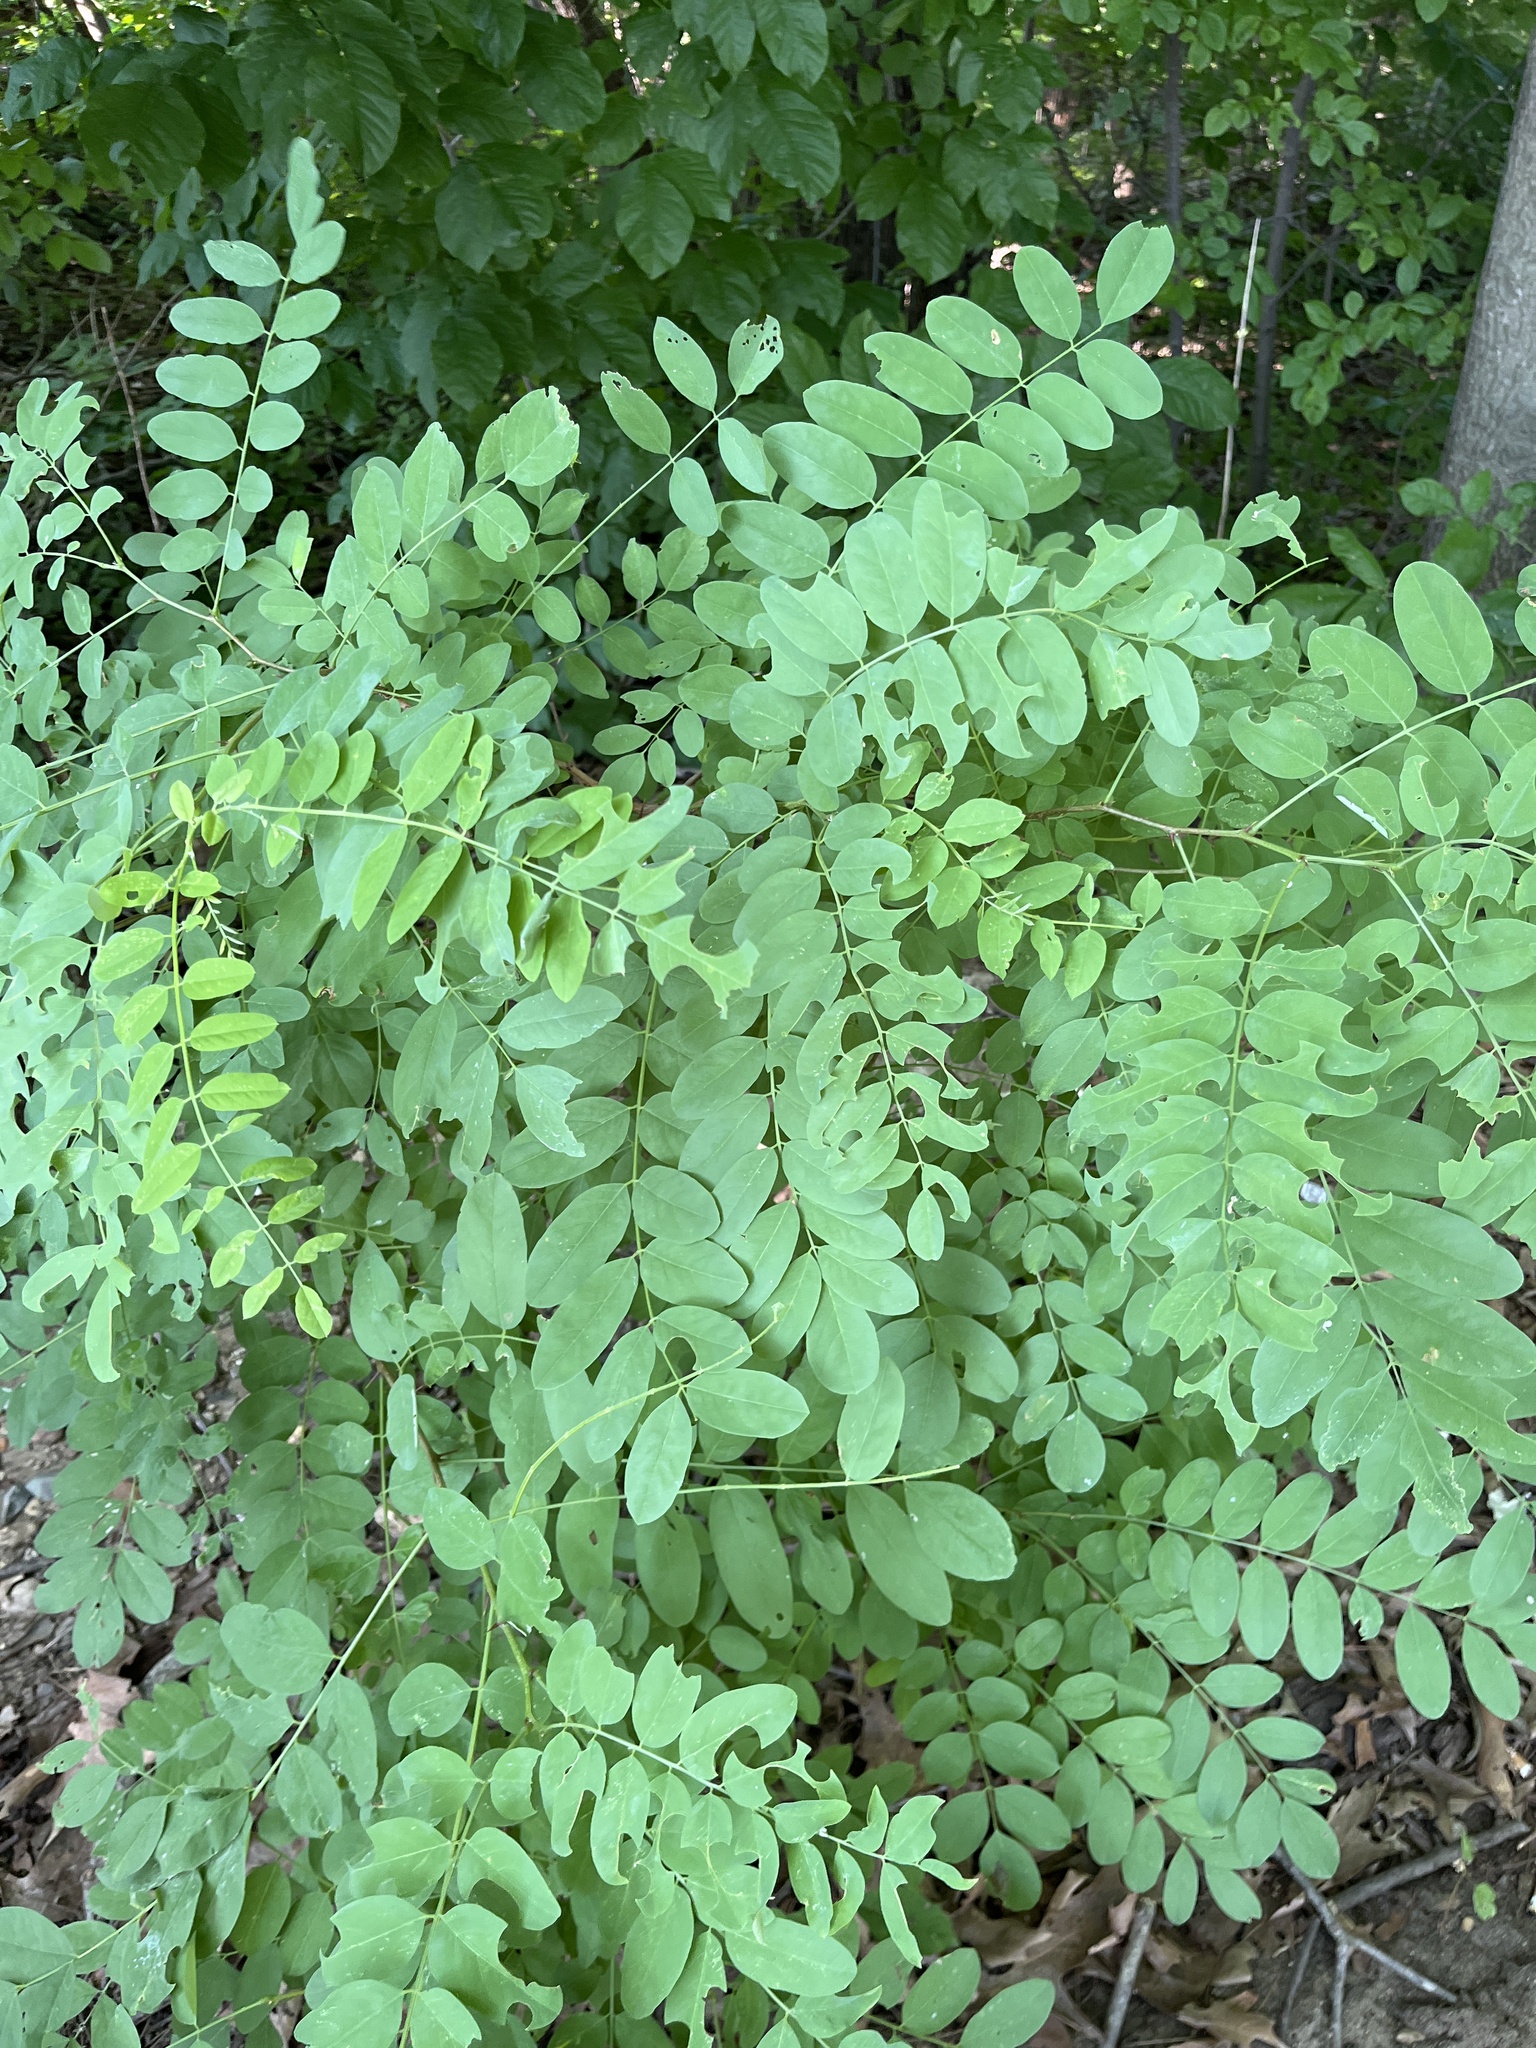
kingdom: Plantae
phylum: Tracheophyta
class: Magnoliopsida
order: Fabales
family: Fabaceae
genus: Robinia
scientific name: Robinia pseudoacacia
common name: Black locust
